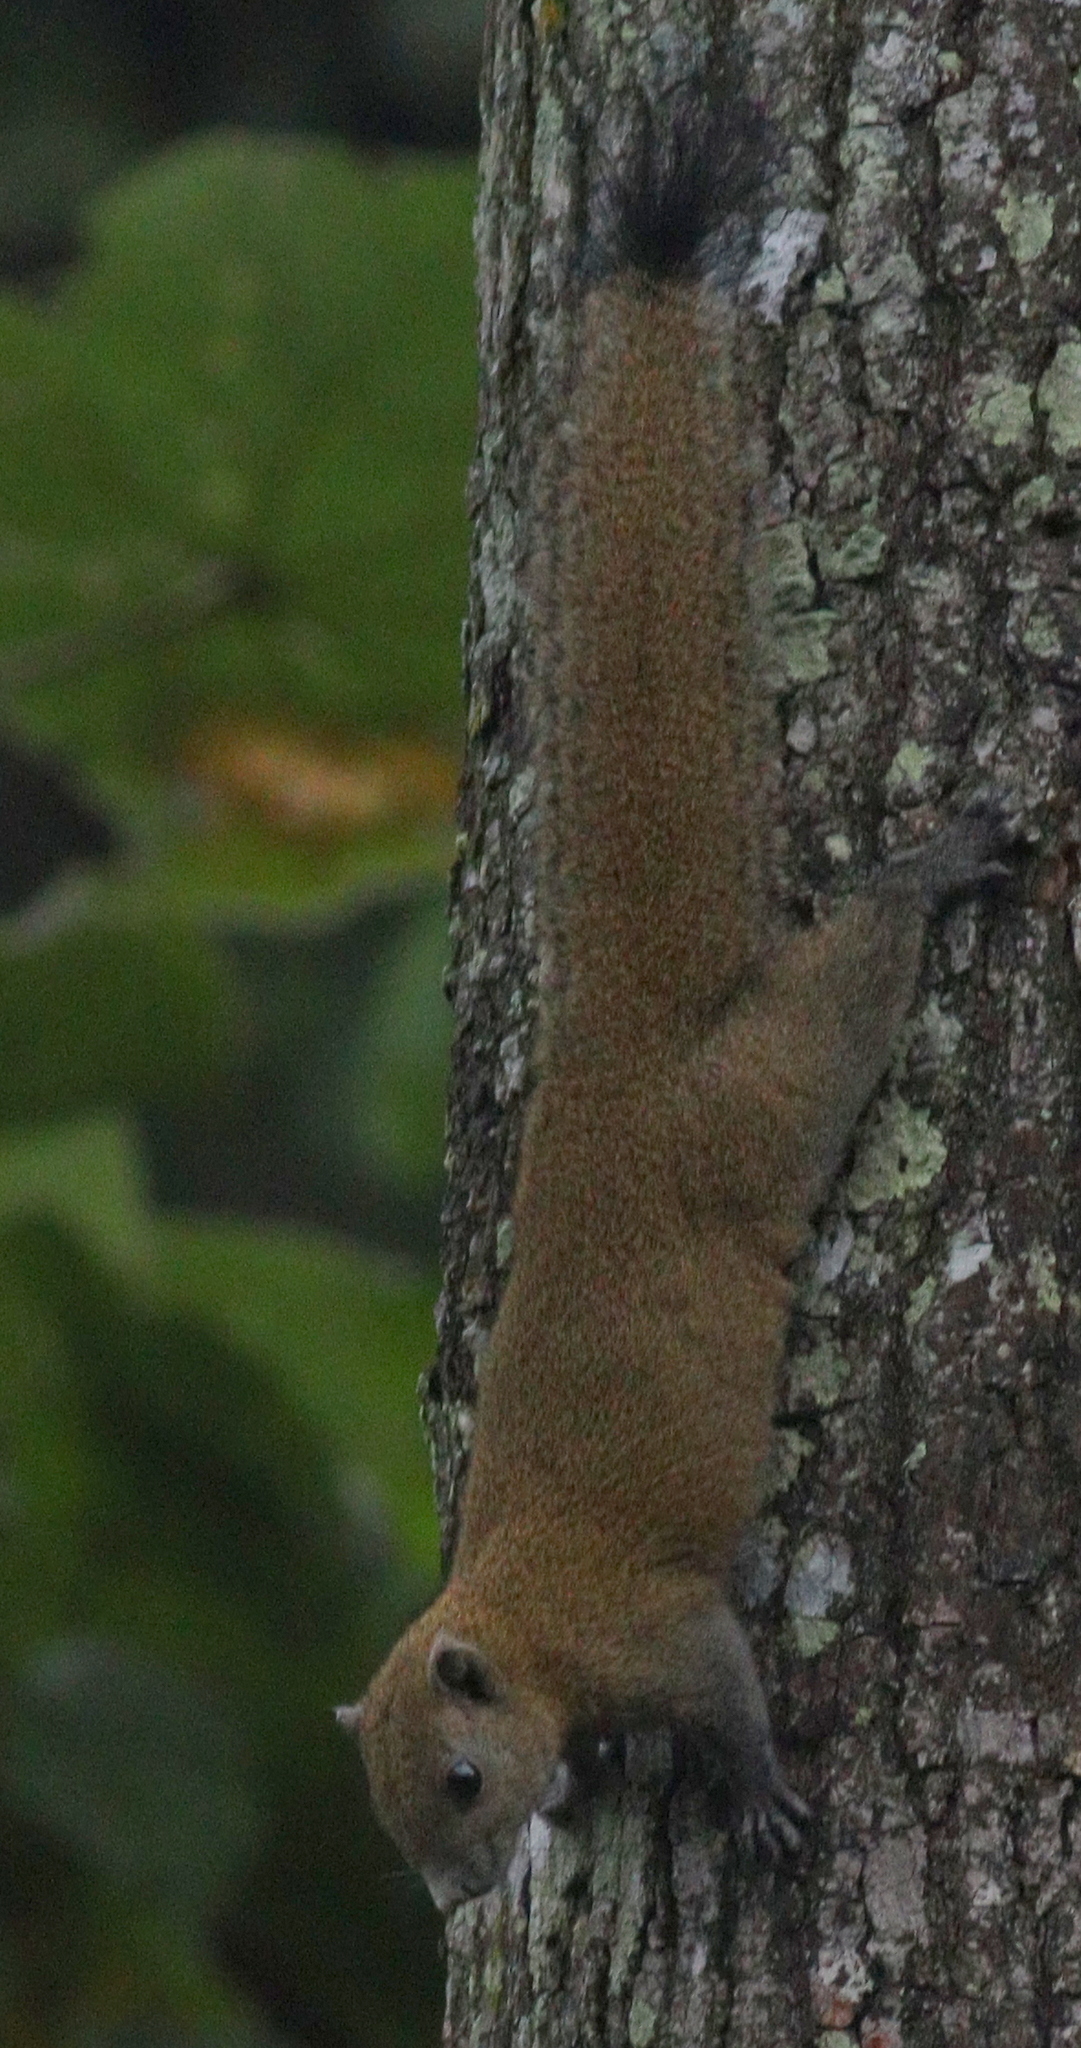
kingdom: Animalia
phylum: Chordata
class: Mammalia
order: Rodentia
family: Sciuridae
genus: Callosciurus
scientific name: Callosciurus caniceps
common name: Gray-bellied squirrel
